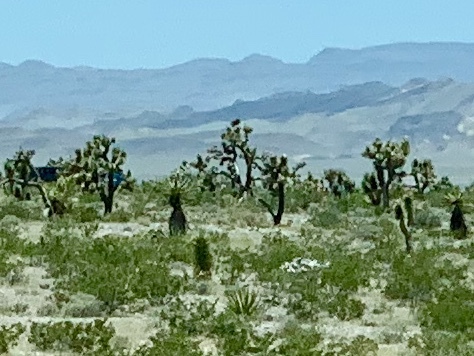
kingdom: Plantae
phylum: Tracheophyta
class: Liliopsida
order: Asparagales
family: Asparagaceae
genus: Yucca
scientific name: Yucca brevifolia
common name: Joshua tree
